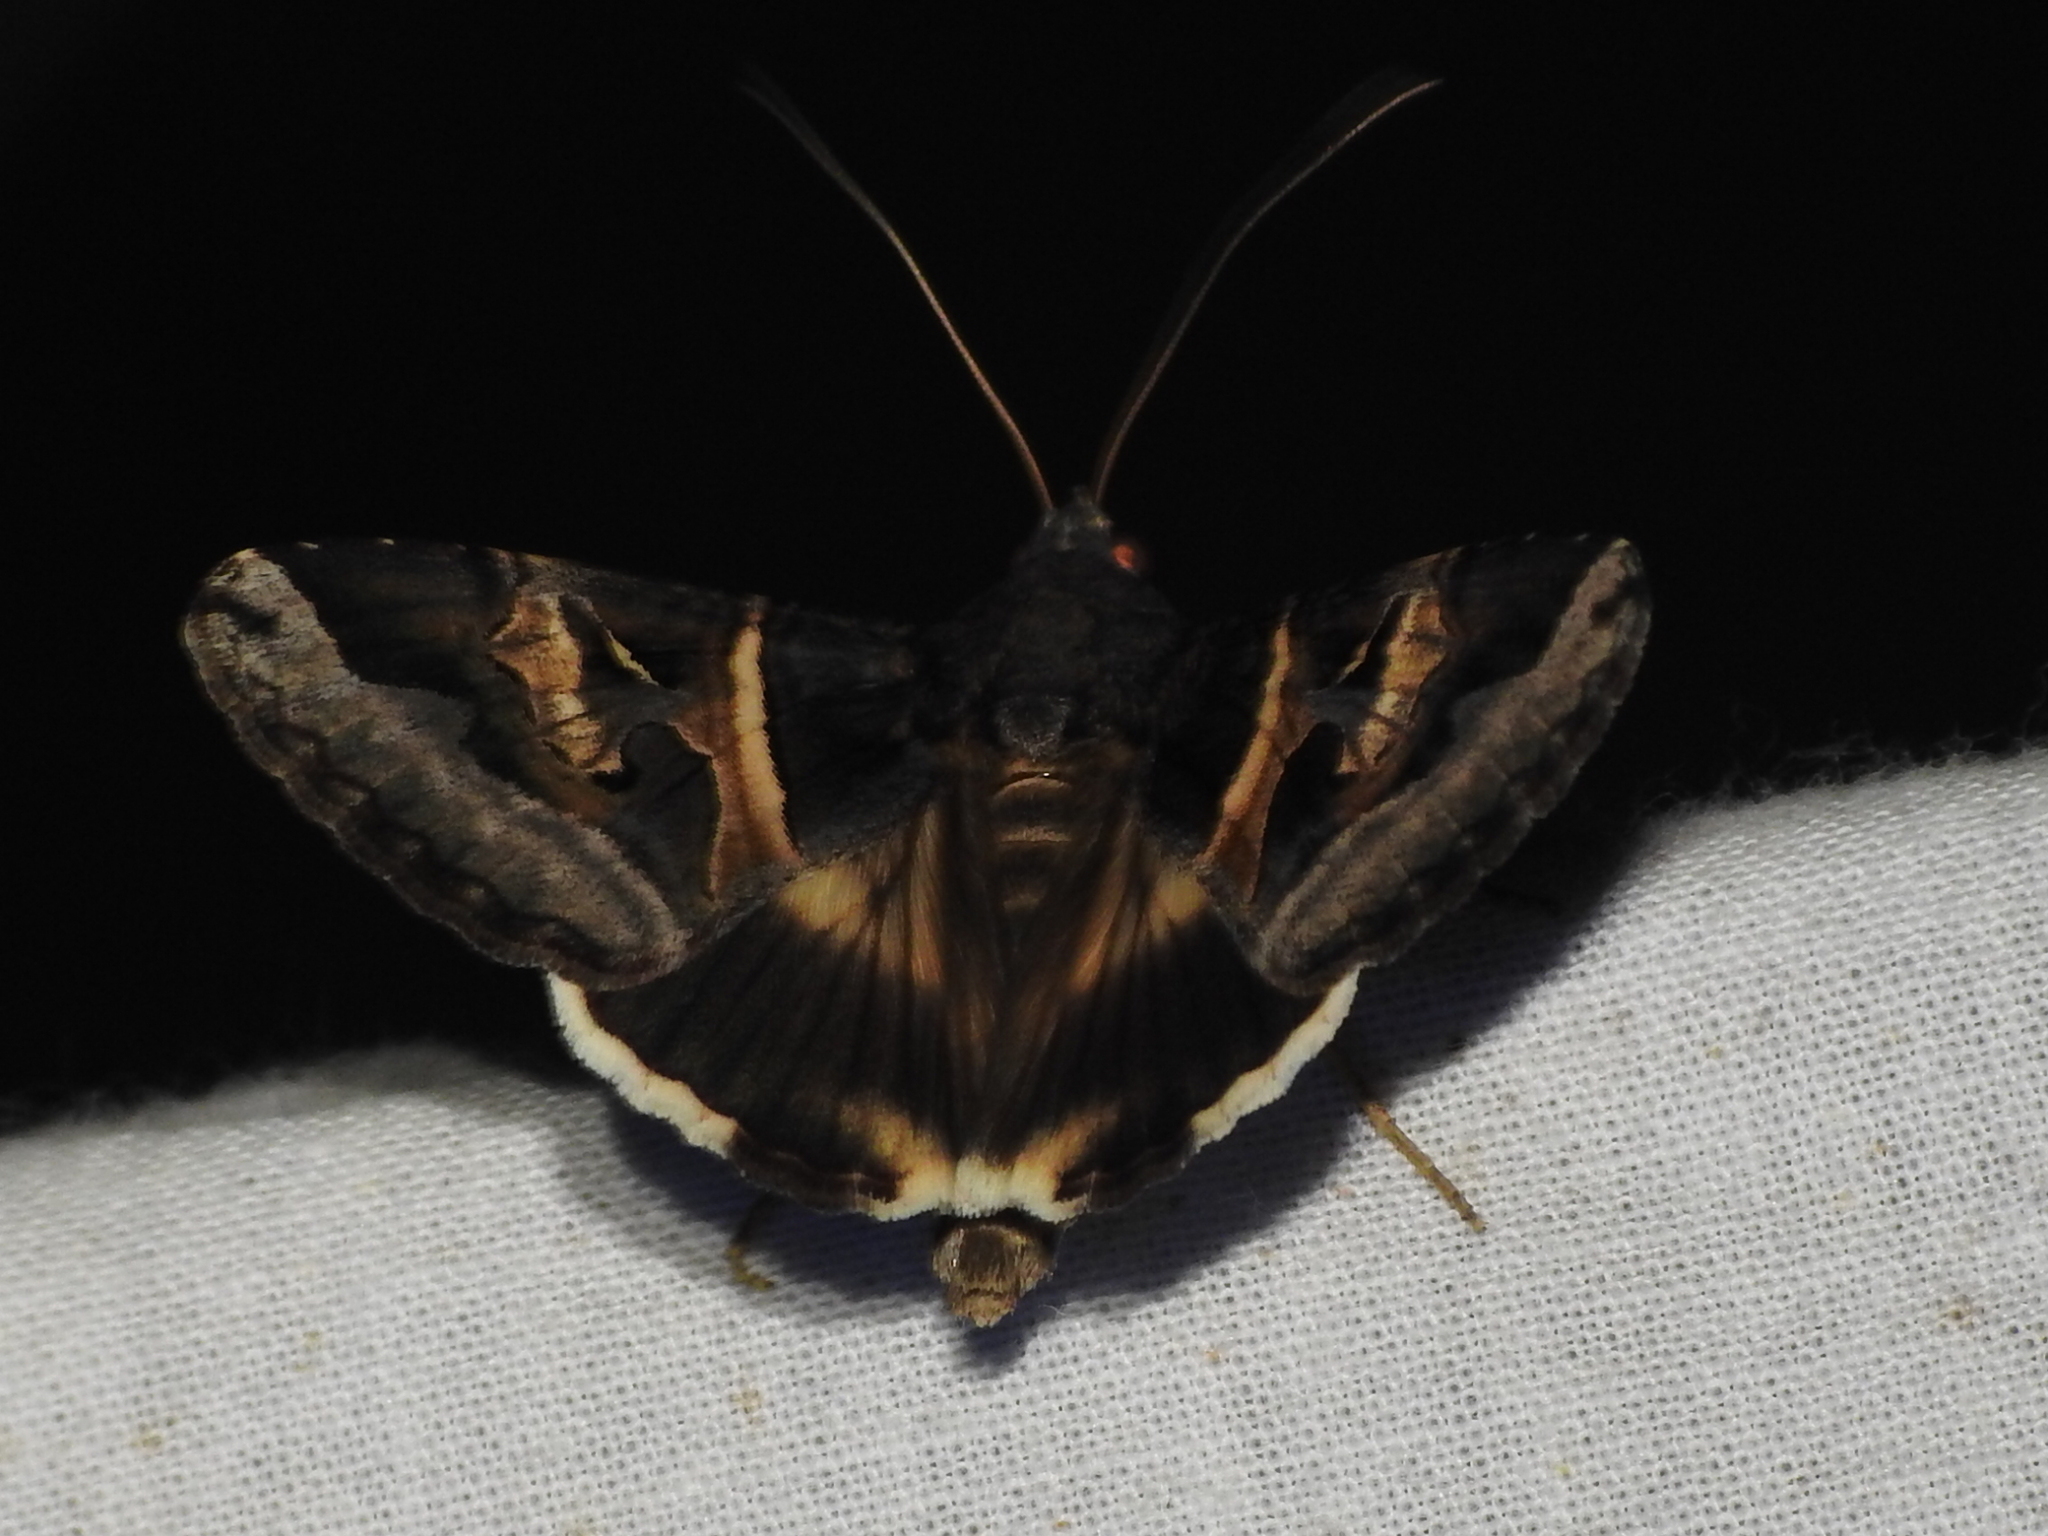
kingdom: Animalia
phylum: Arthropoda
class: Insecta
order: Lepidoptera
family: Erebidae
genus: Melipotis
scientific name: Melipotis indomita
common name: Moth
